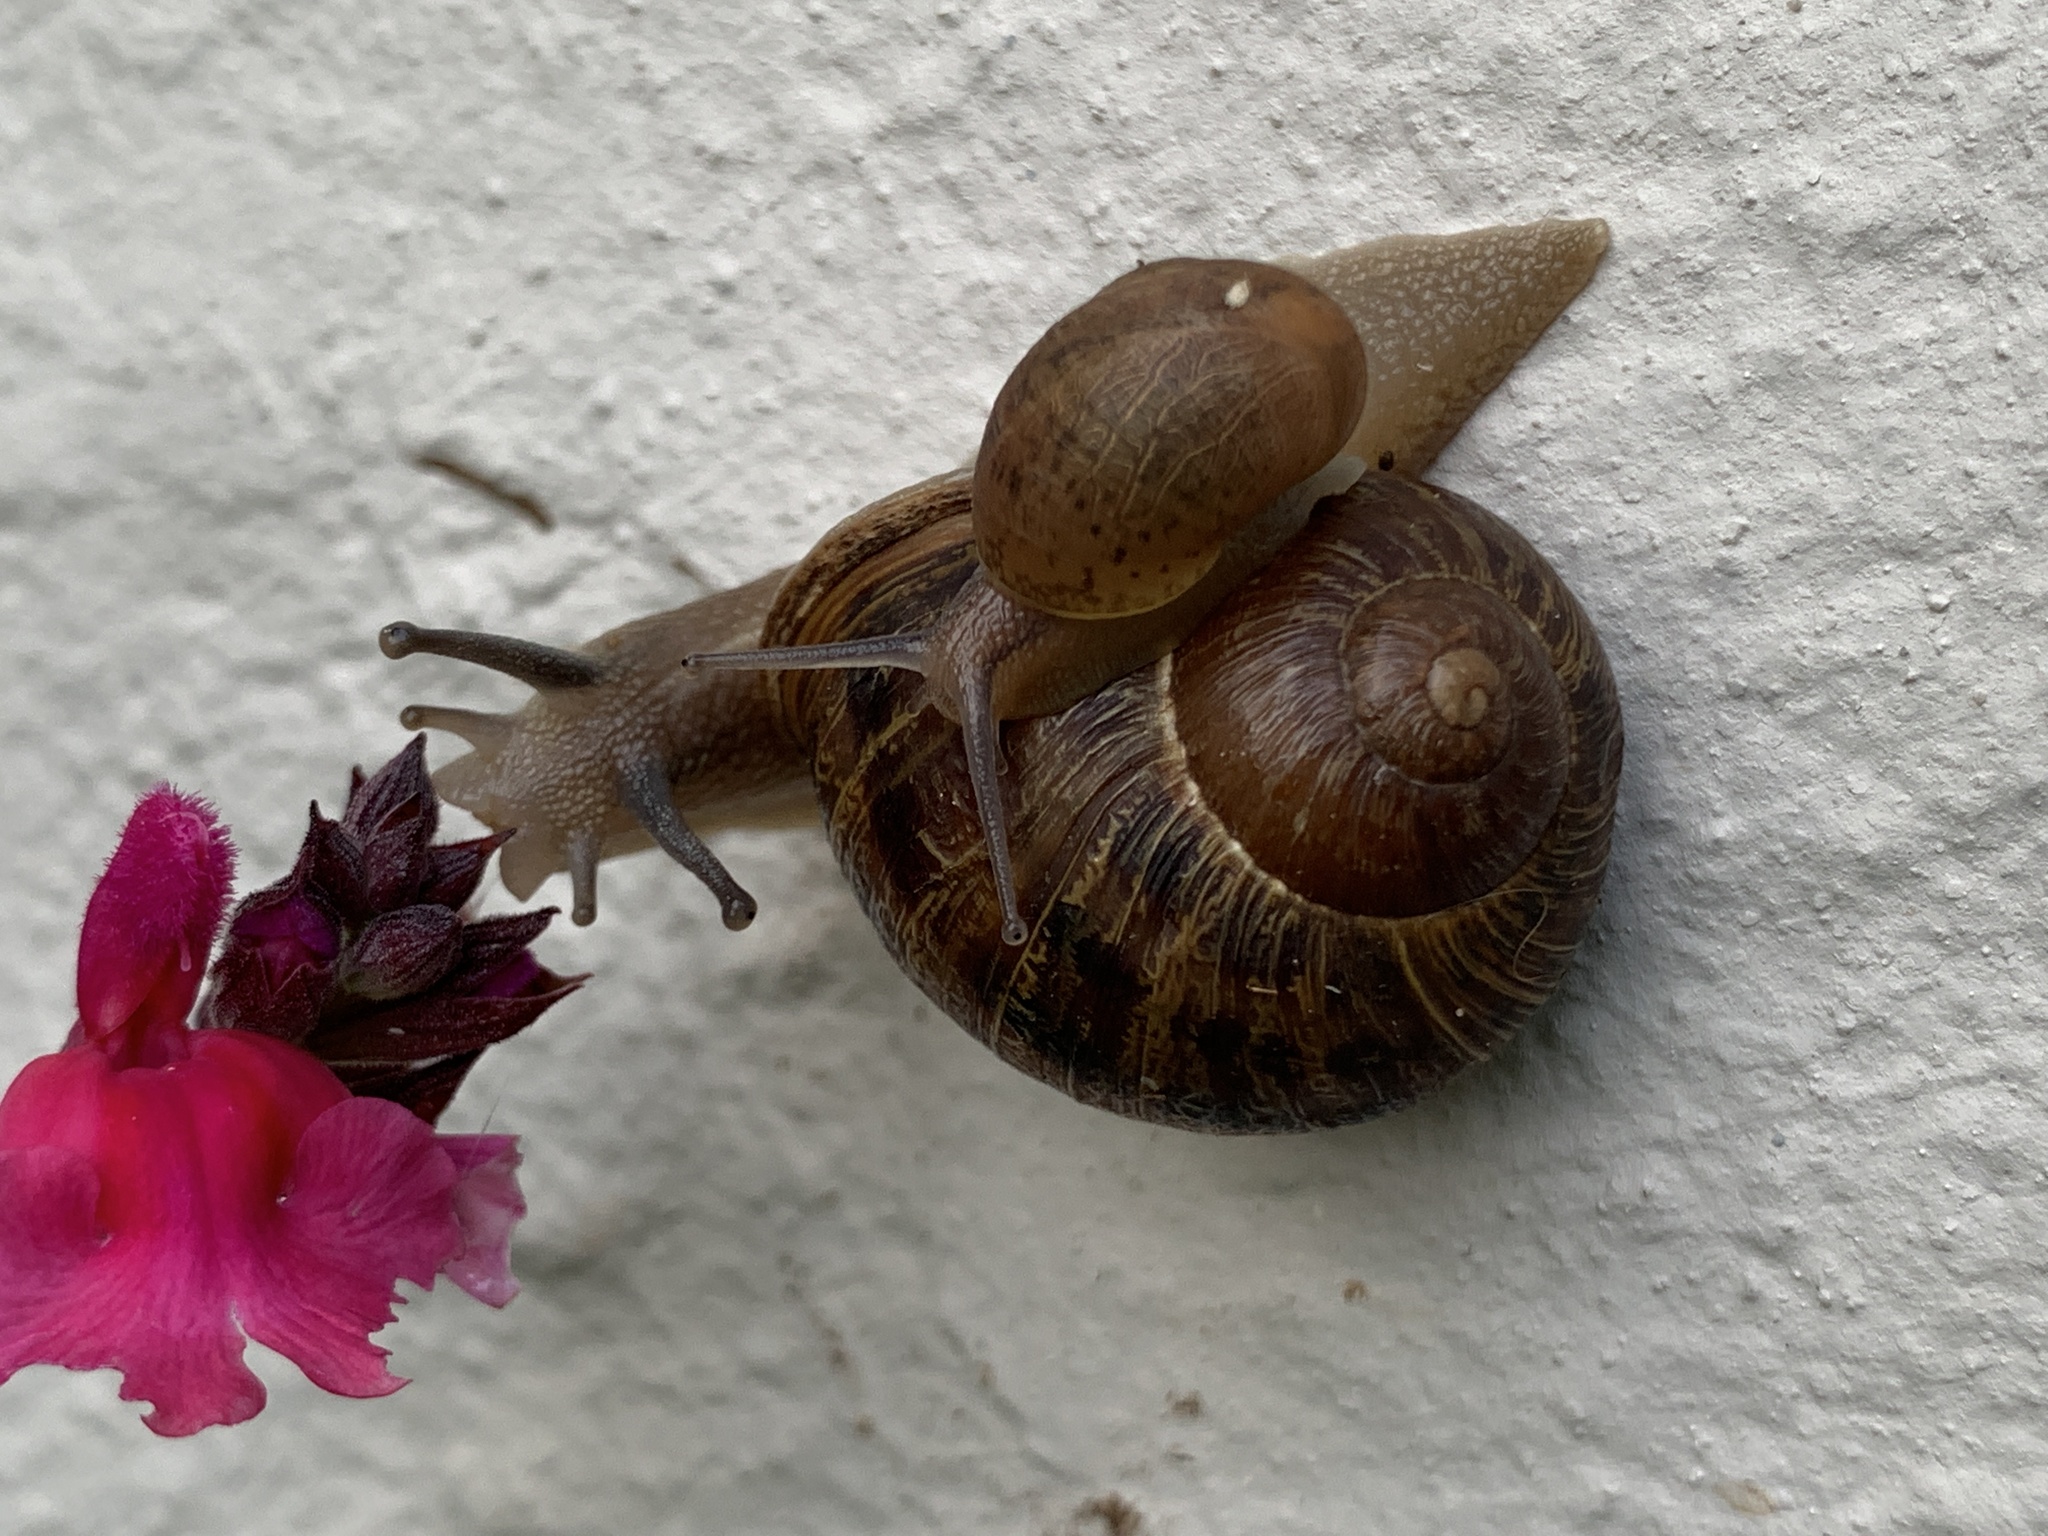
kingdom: Animalia
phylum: Mollusca
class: Gastropoda
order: Stylommatophora
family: Helicidae
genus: Cornu
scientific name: Cornu aspersum
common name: Brown garden snail
